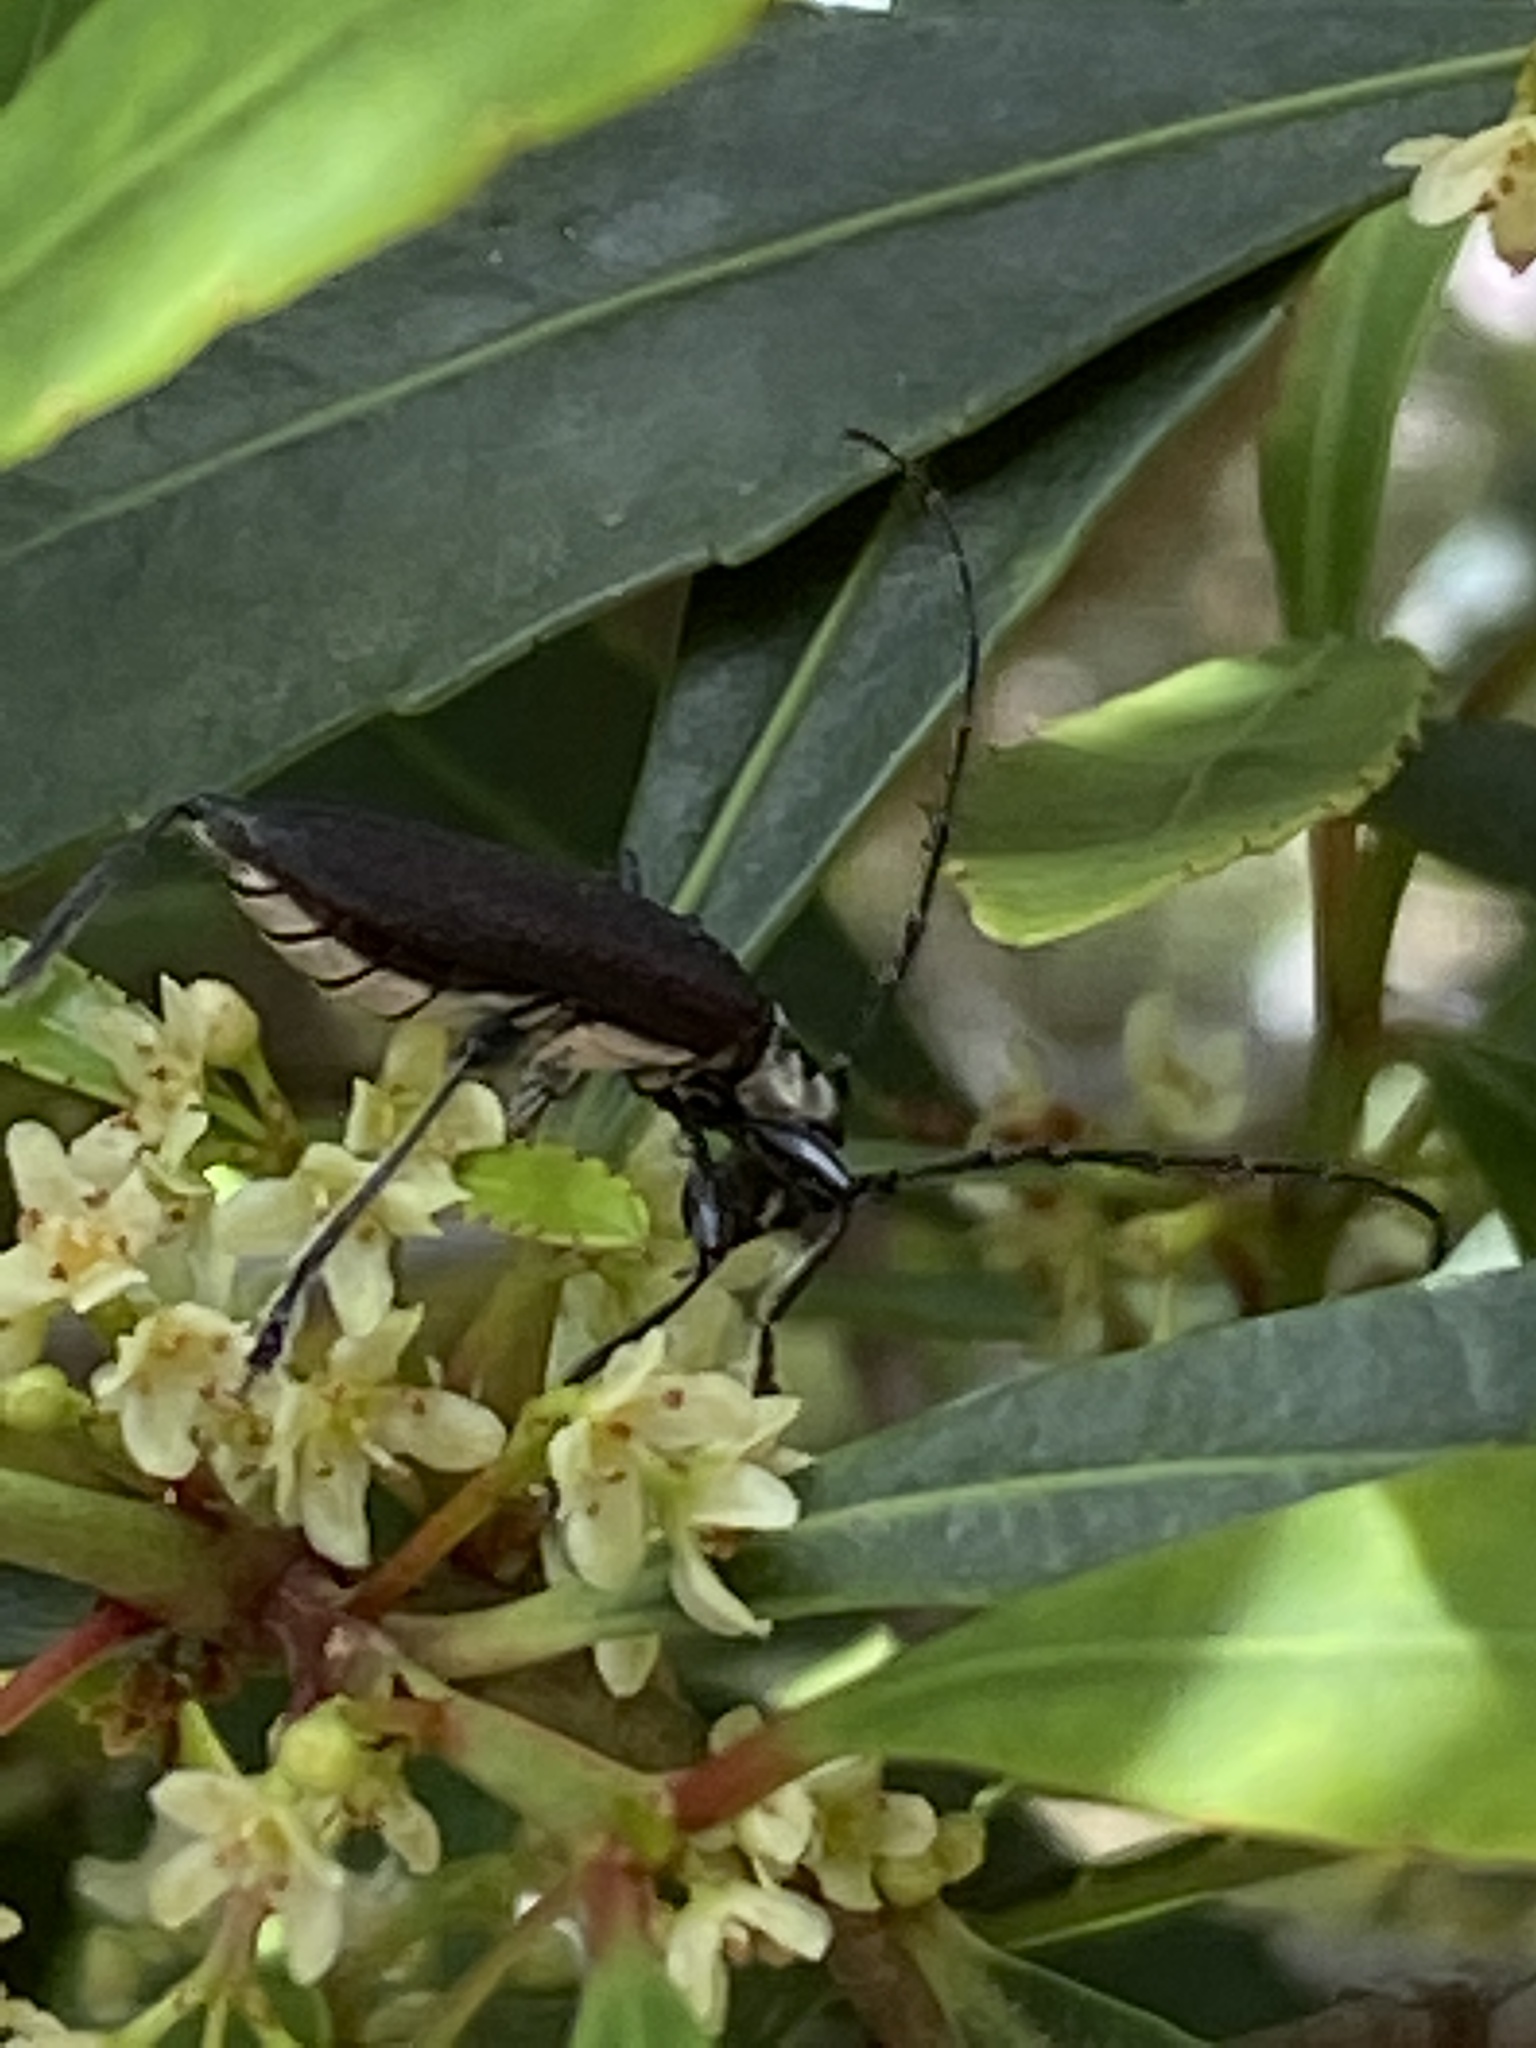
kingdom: Animalia
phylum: Arthropoda
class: Insecta
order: Coleoptera
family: Cerambycidae
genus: Ochimus
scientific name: Ochimus grobbelaarae
